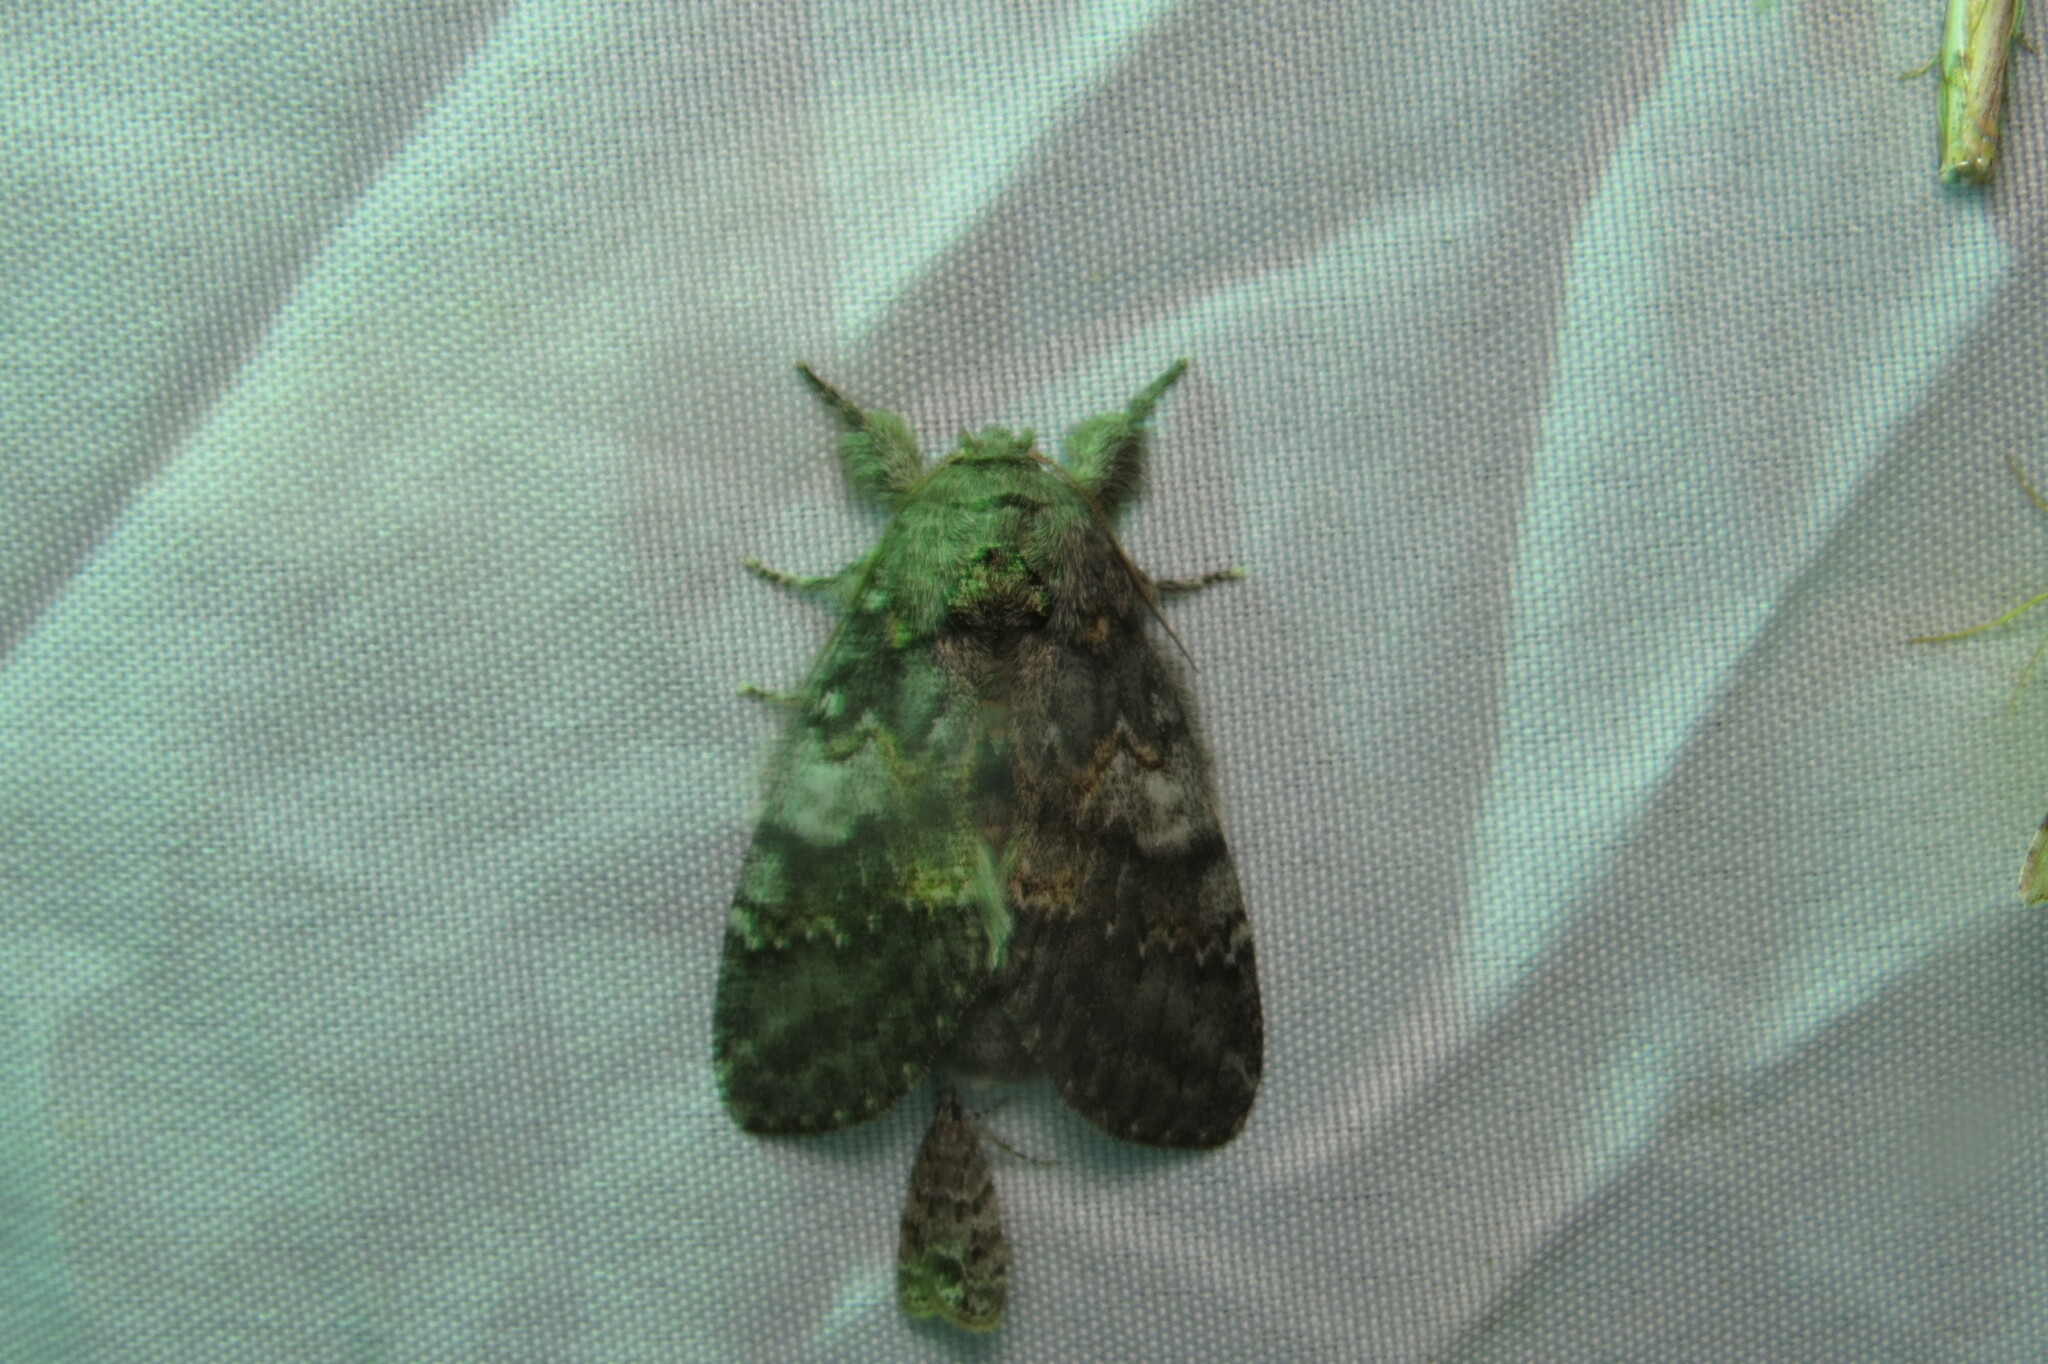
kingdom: Animalia
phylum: Arthropoda
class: Insecta
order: Lepidoptera
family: Notodontidae
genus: Peridea
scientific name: Peridea angulosa
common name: Angulose prominent
